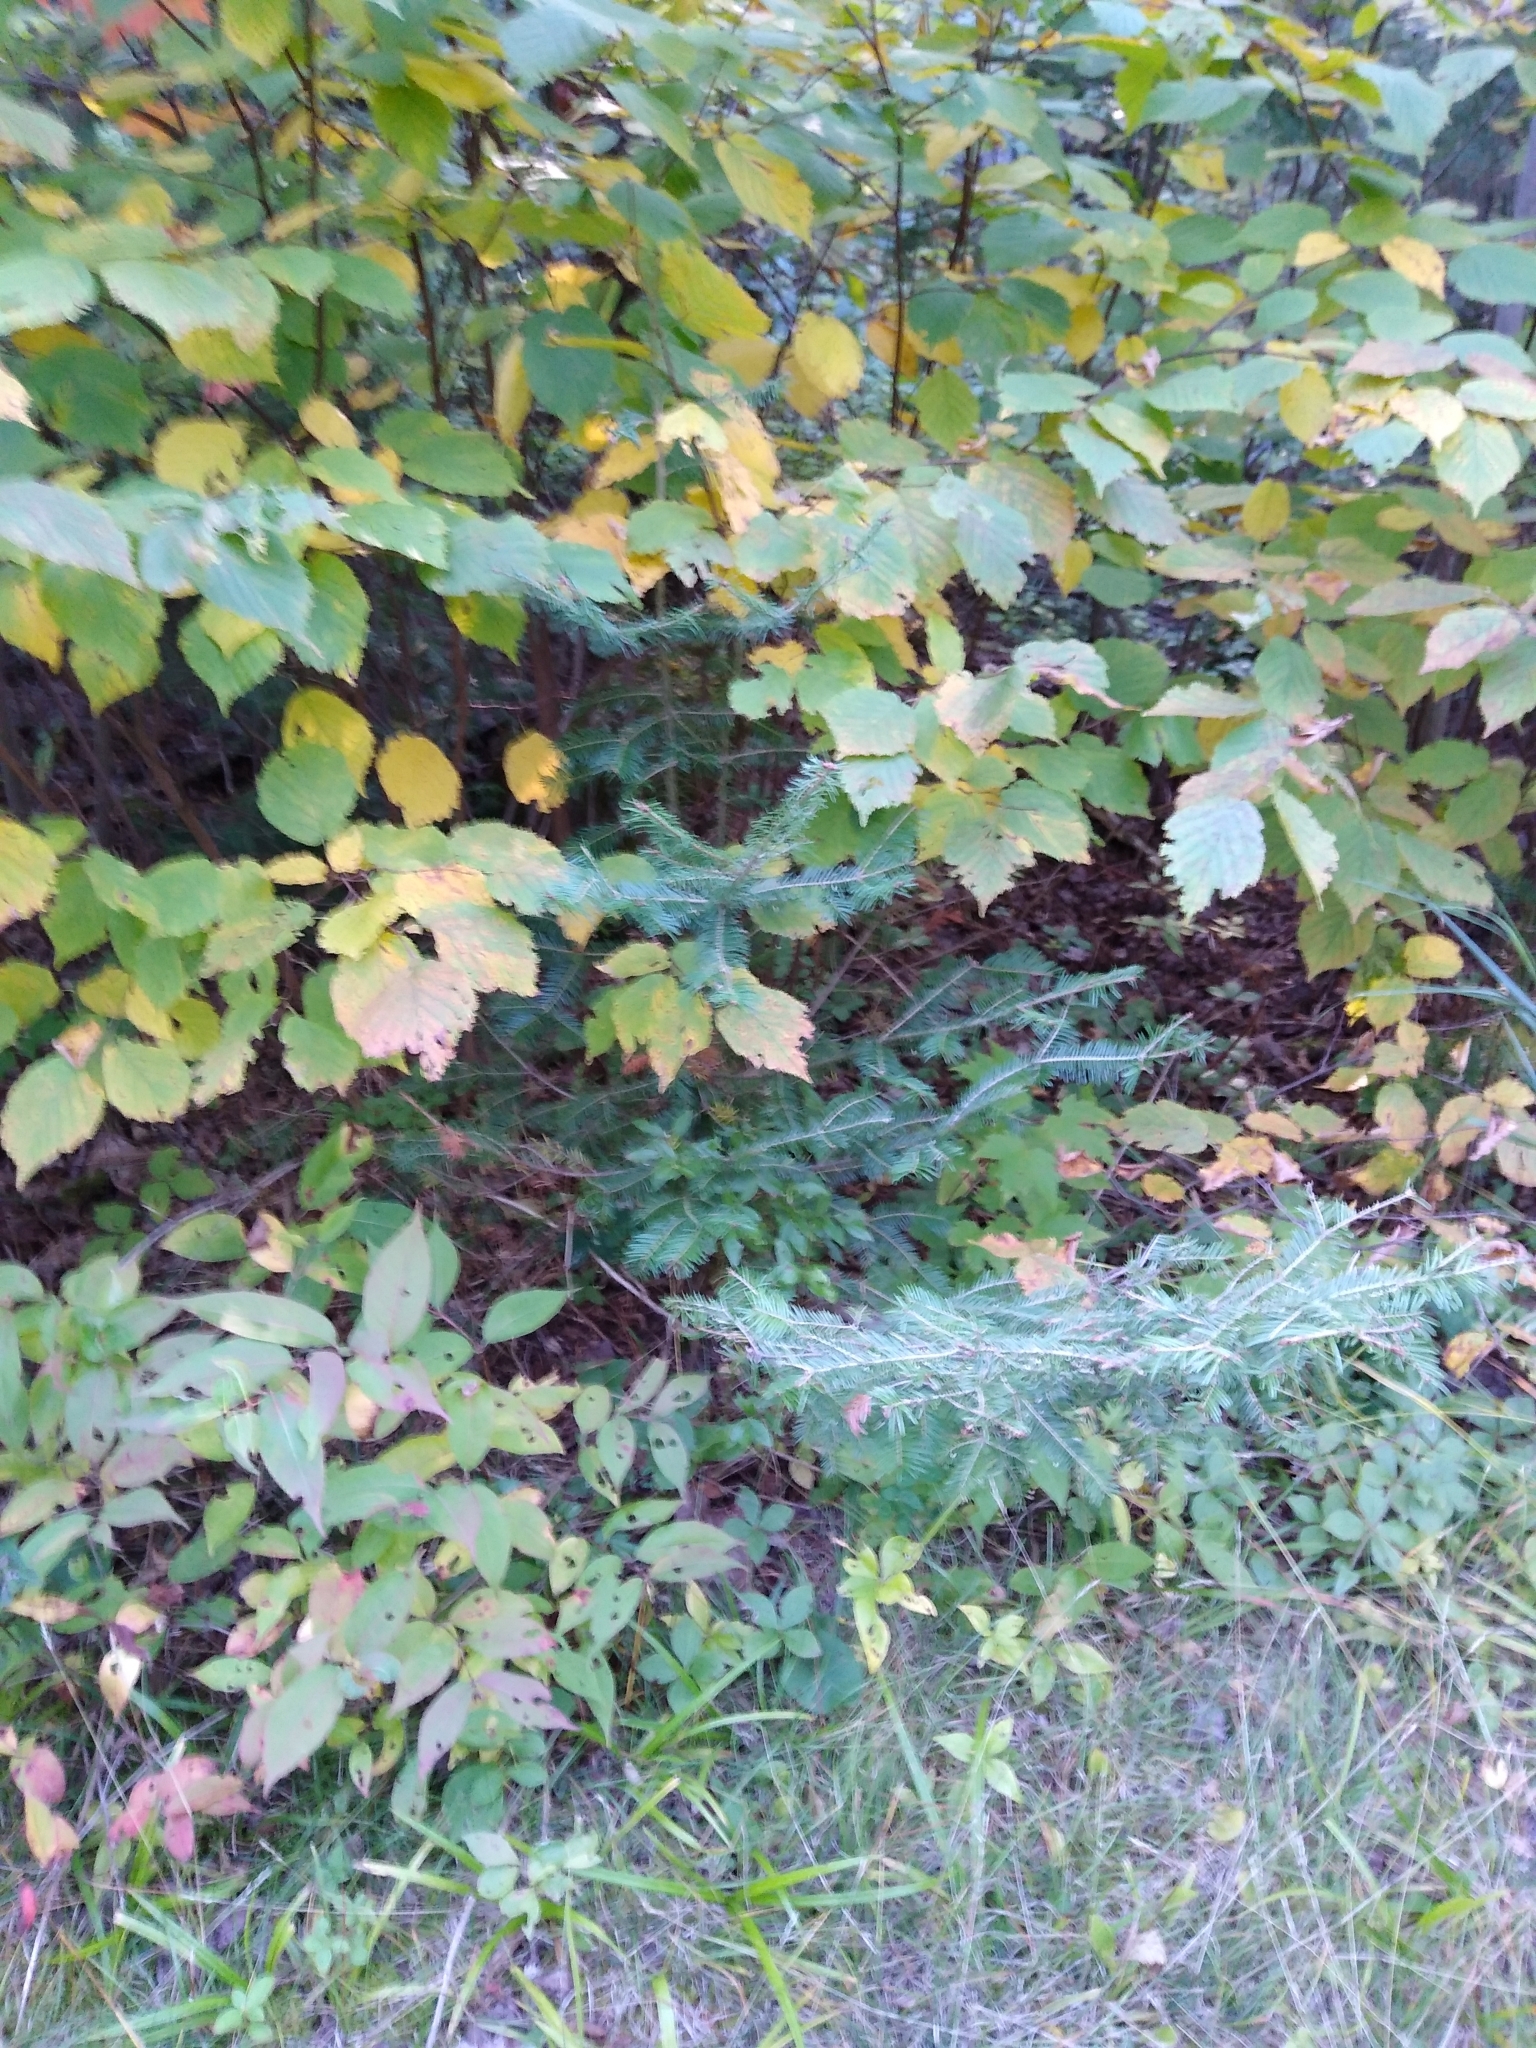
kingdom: Plantae
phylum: Tracheophyta
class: Pinopsida
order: Pinales
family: Pinaceae
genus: Abies
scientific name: Abies balsamea
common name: Balsam fir
